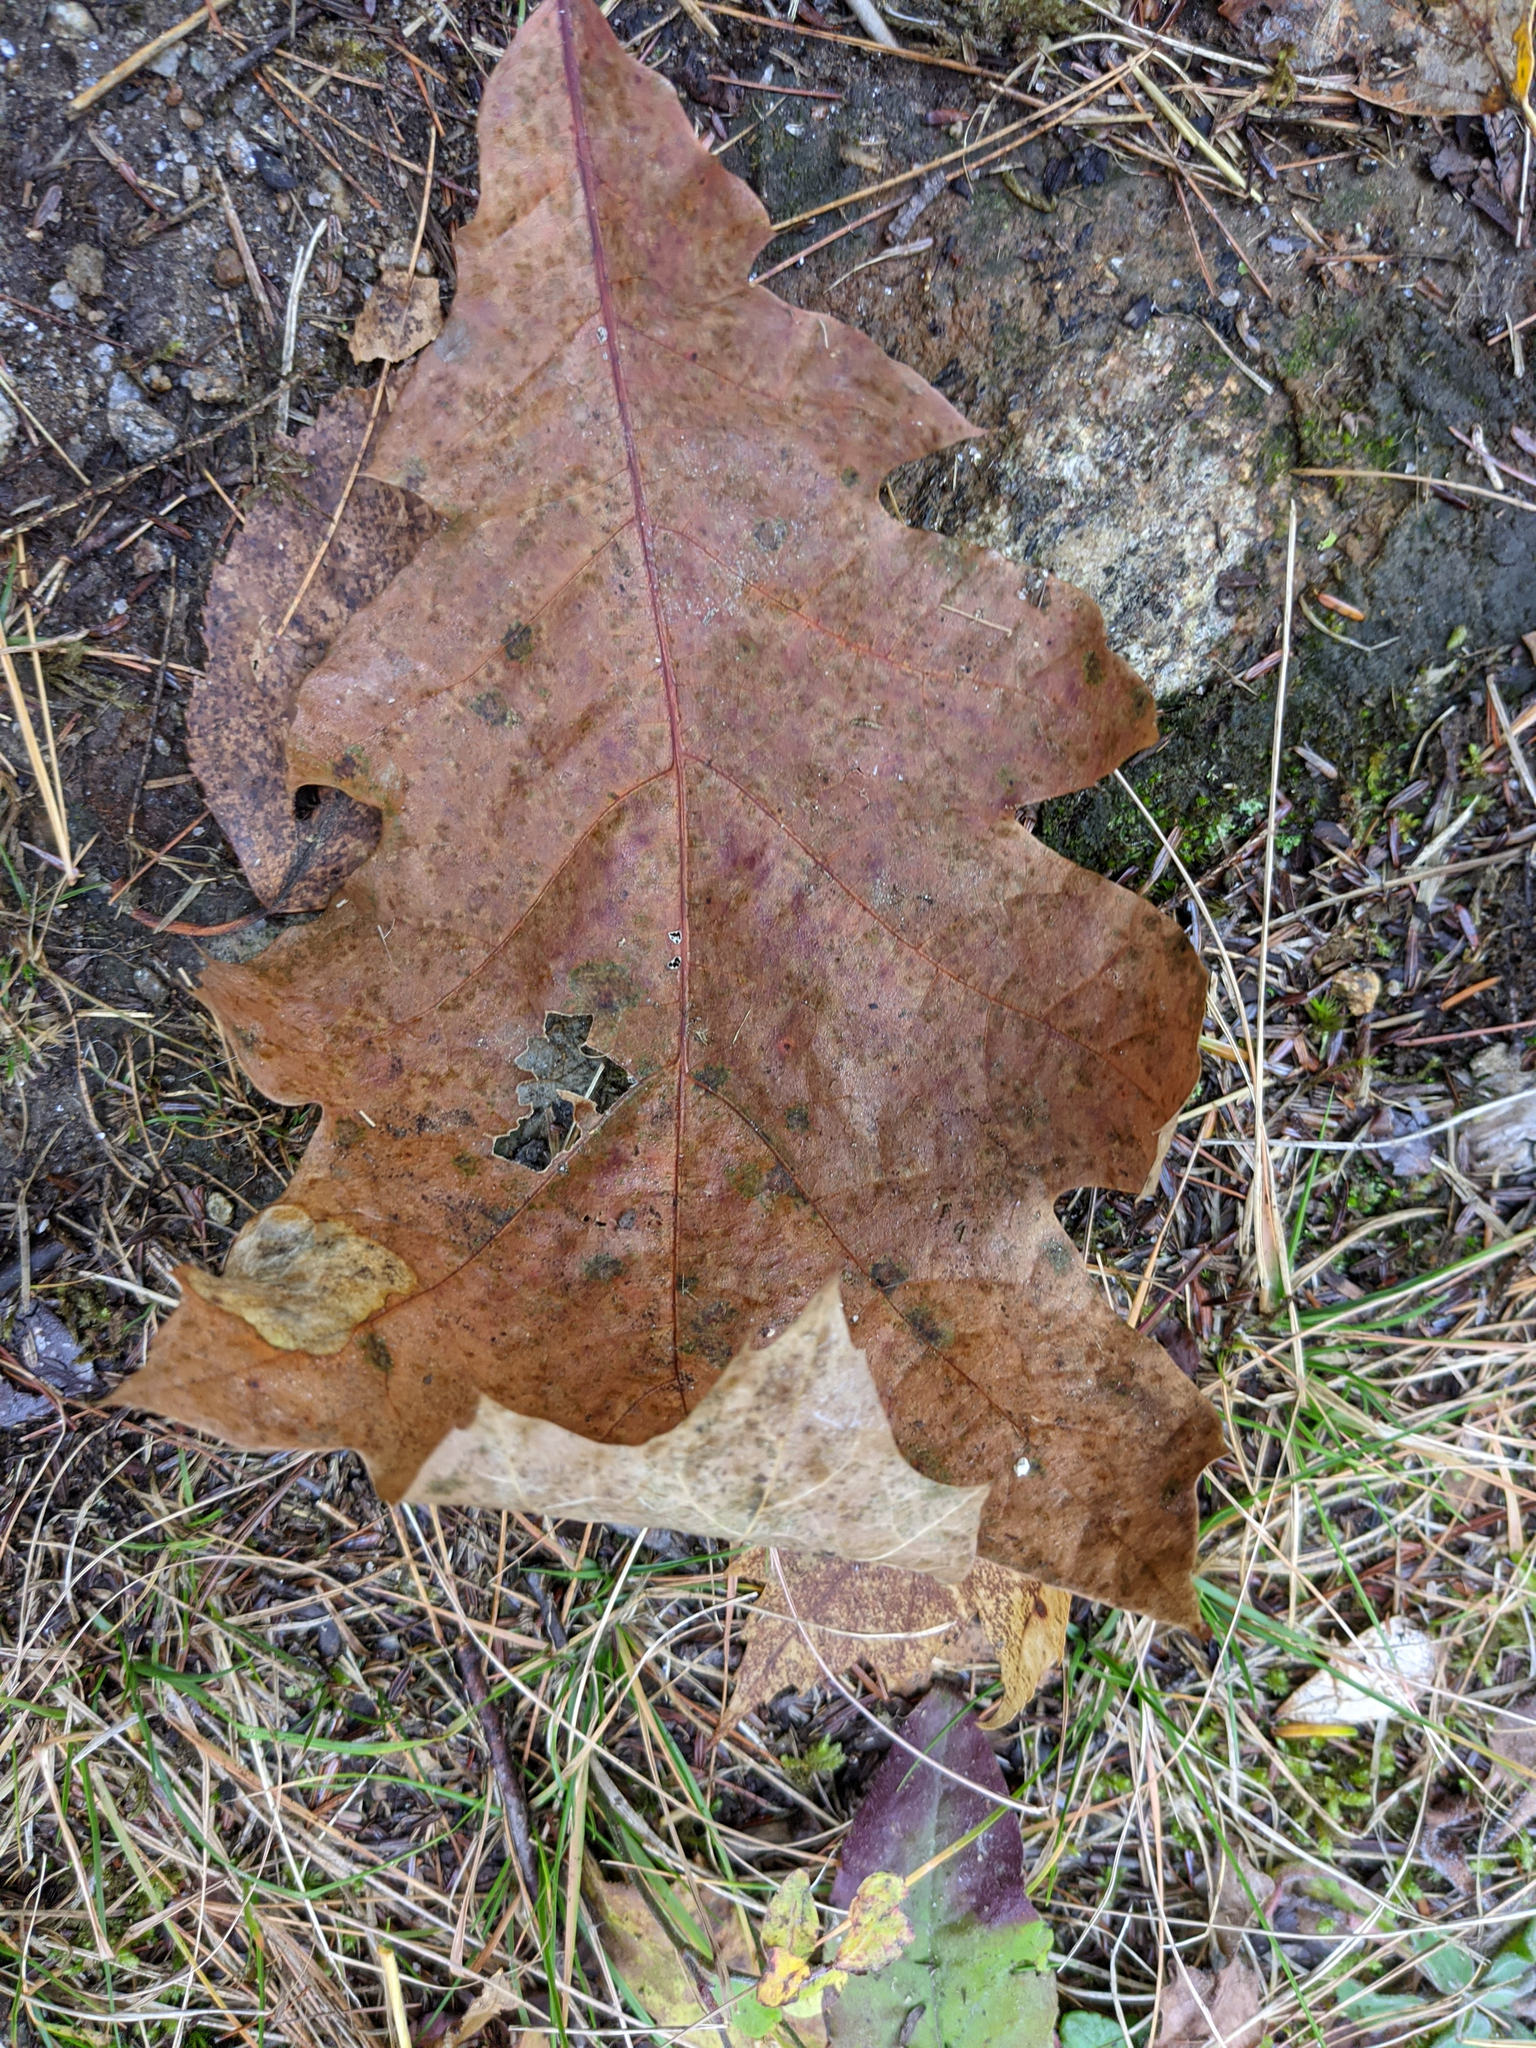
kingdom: Plantae
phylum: Tracheophyta
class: Magnoliopsida
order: Fagales
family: Fagaceae
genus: Quercus
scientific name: Quercus rubra
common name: Red oak
